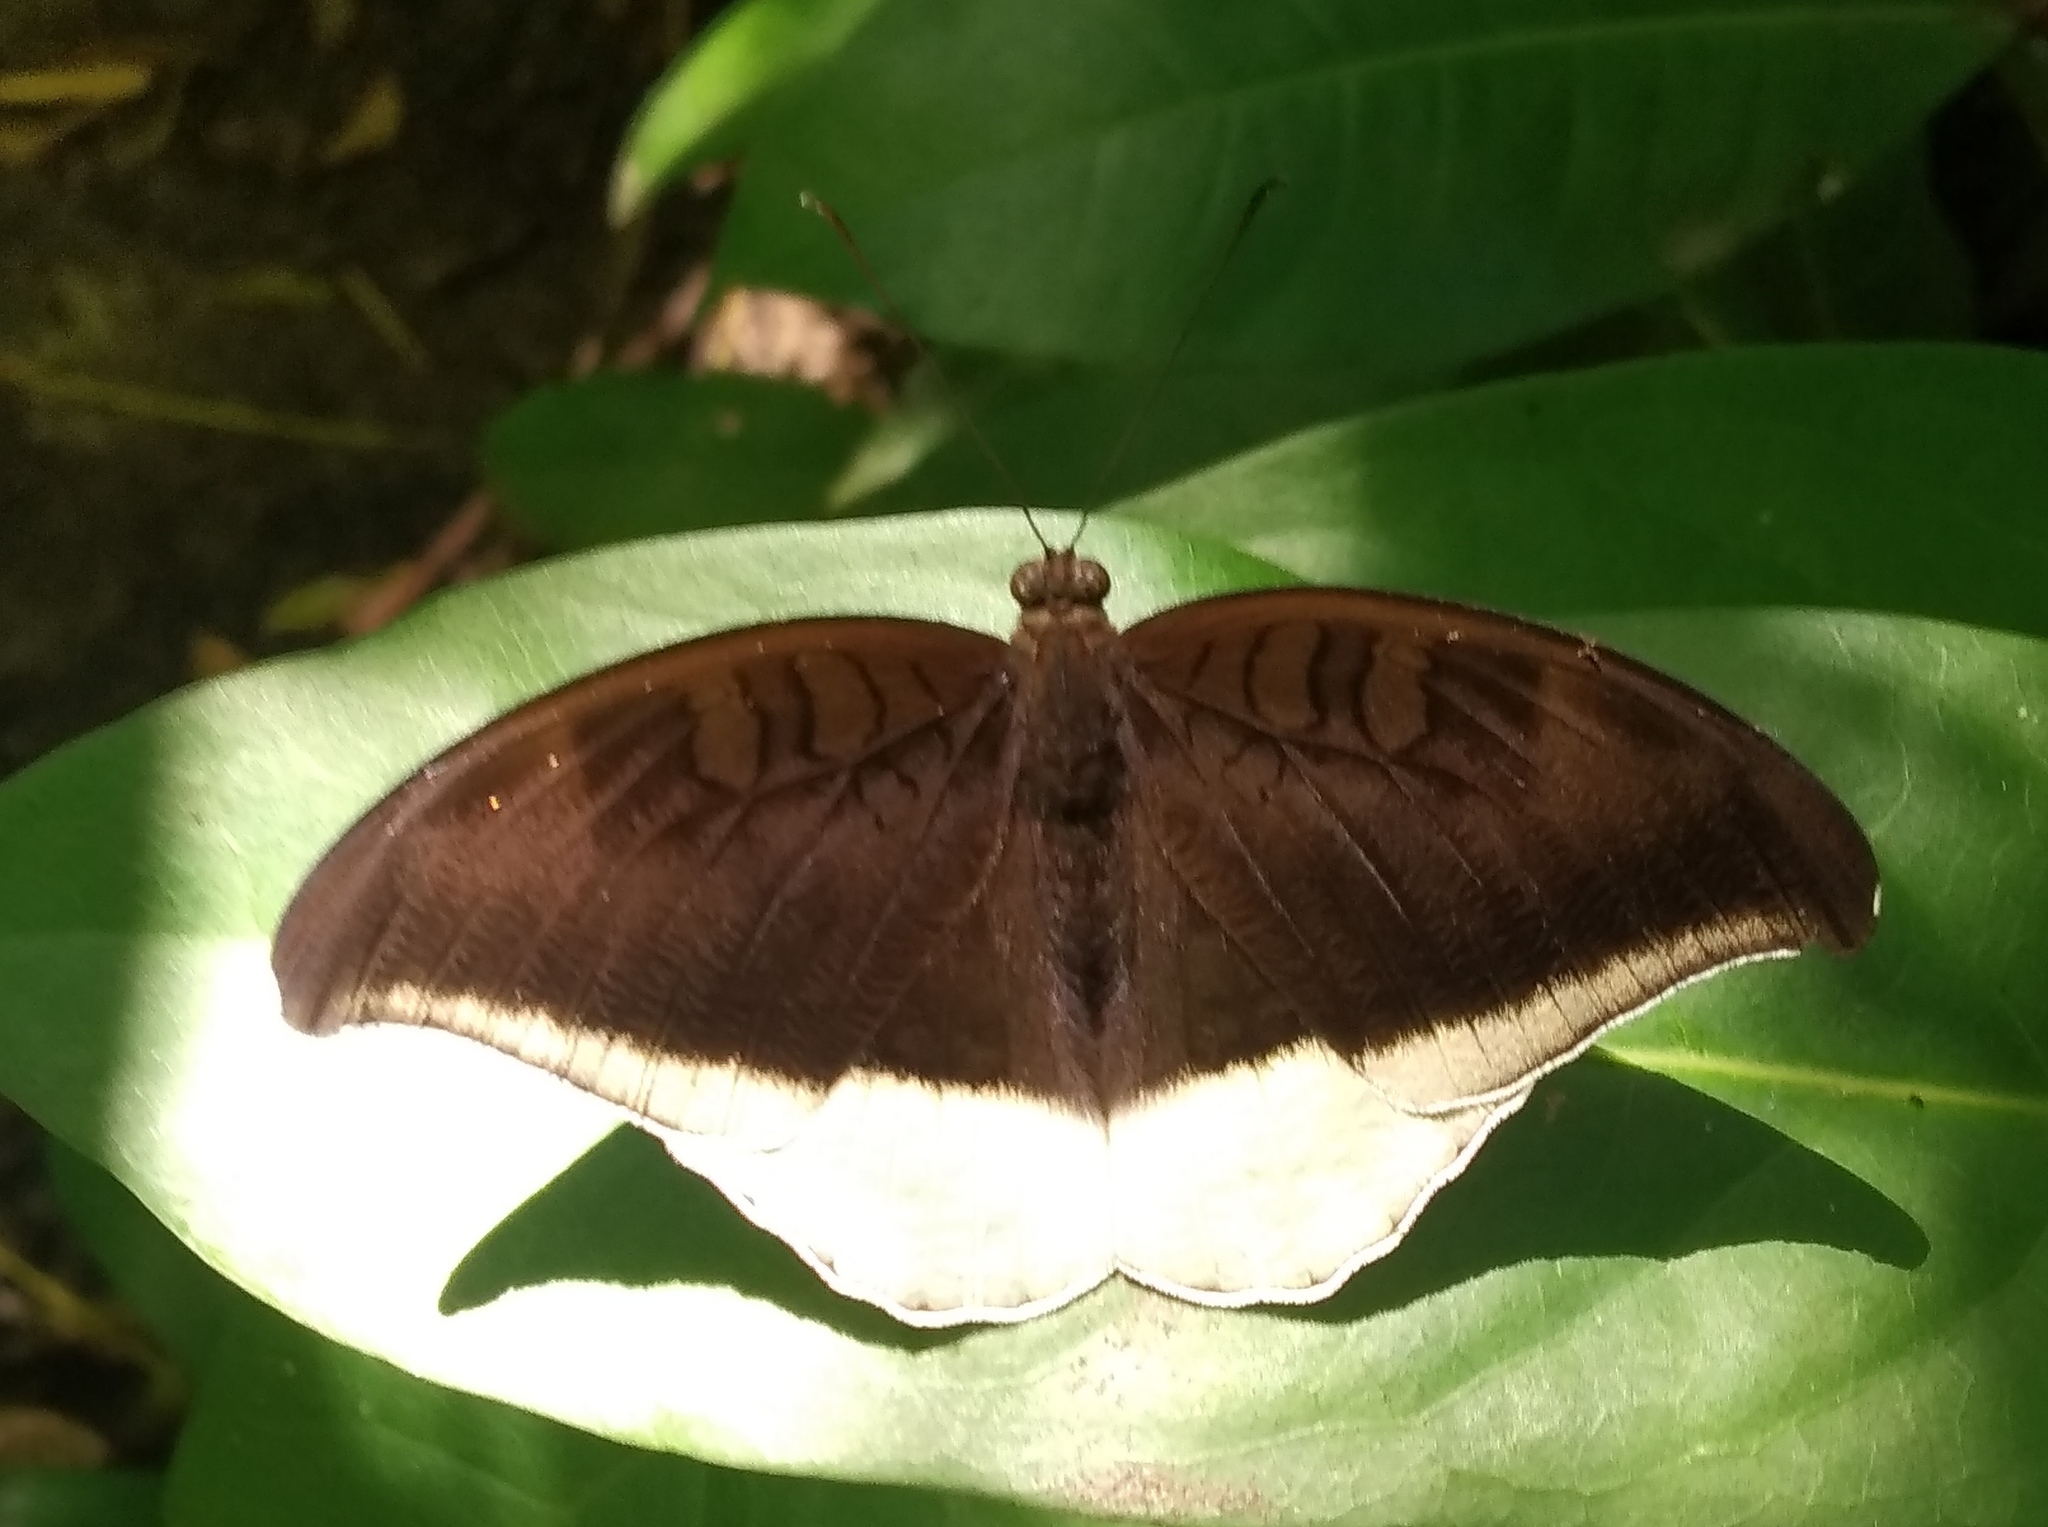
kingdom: Animalia
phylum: Arthropoda
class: Insecta
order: Lepidoptera
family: Nymphalidae
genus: Tanaecia
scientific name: Tanaecia lepidea
